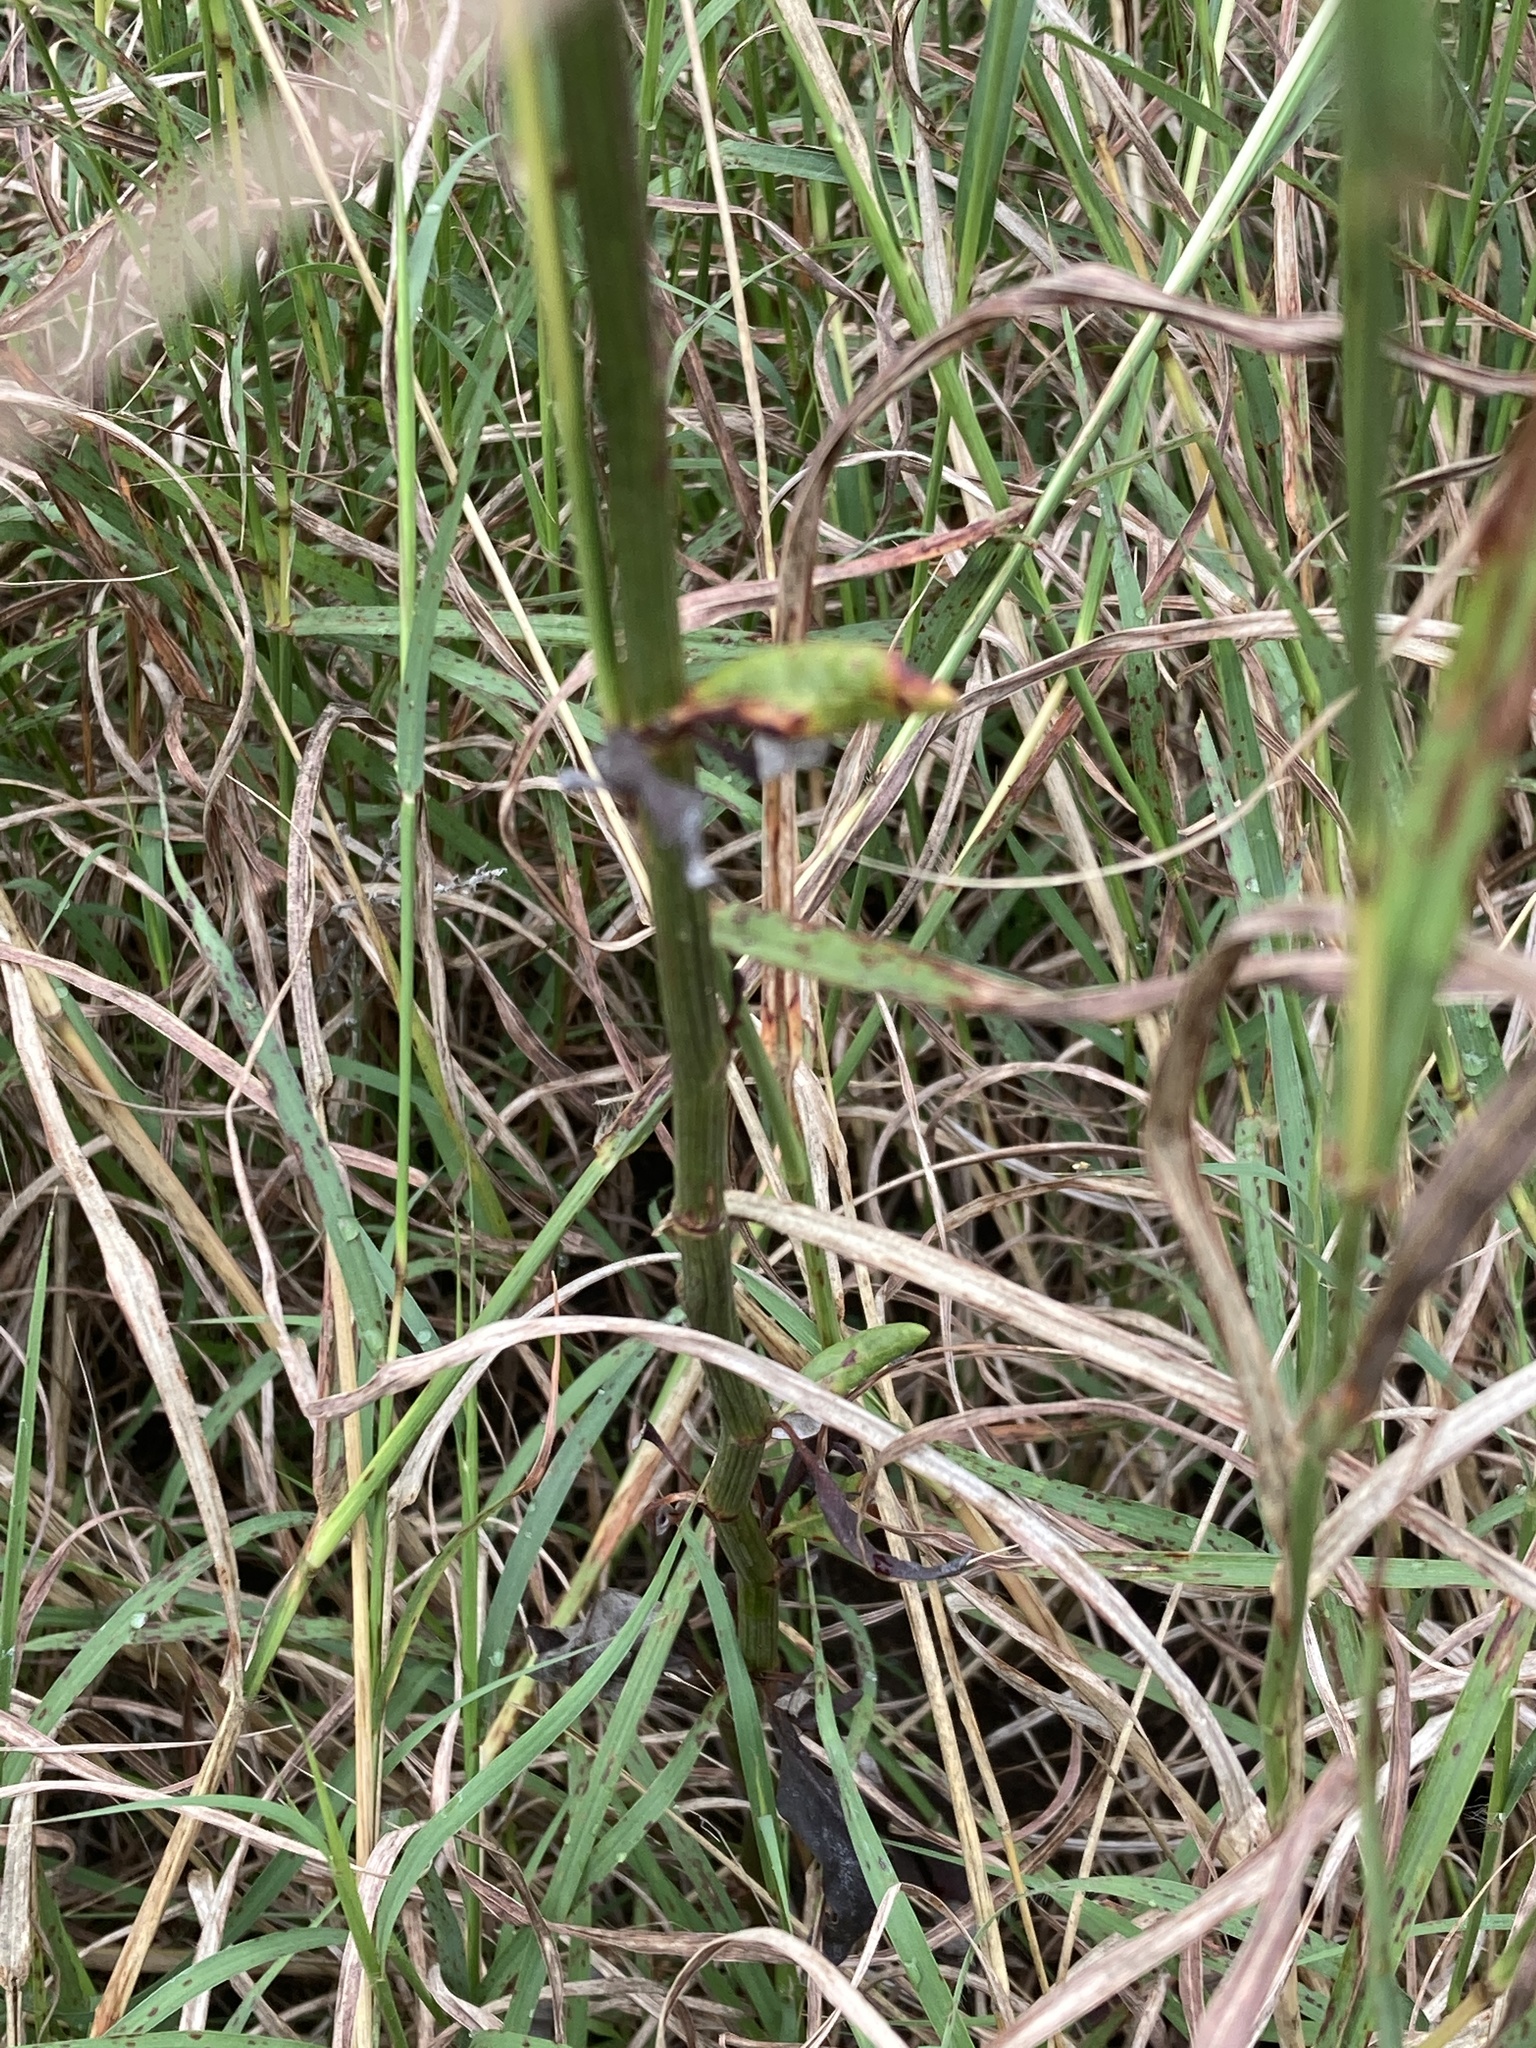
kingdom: Plantae
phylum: Tracheophyta
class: Magnoliopsida
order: Caryophyllales
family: Polygonaceae
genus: Eriogonum
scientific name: Eriogonum longifolium
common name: Longleaf wild buckwheat
